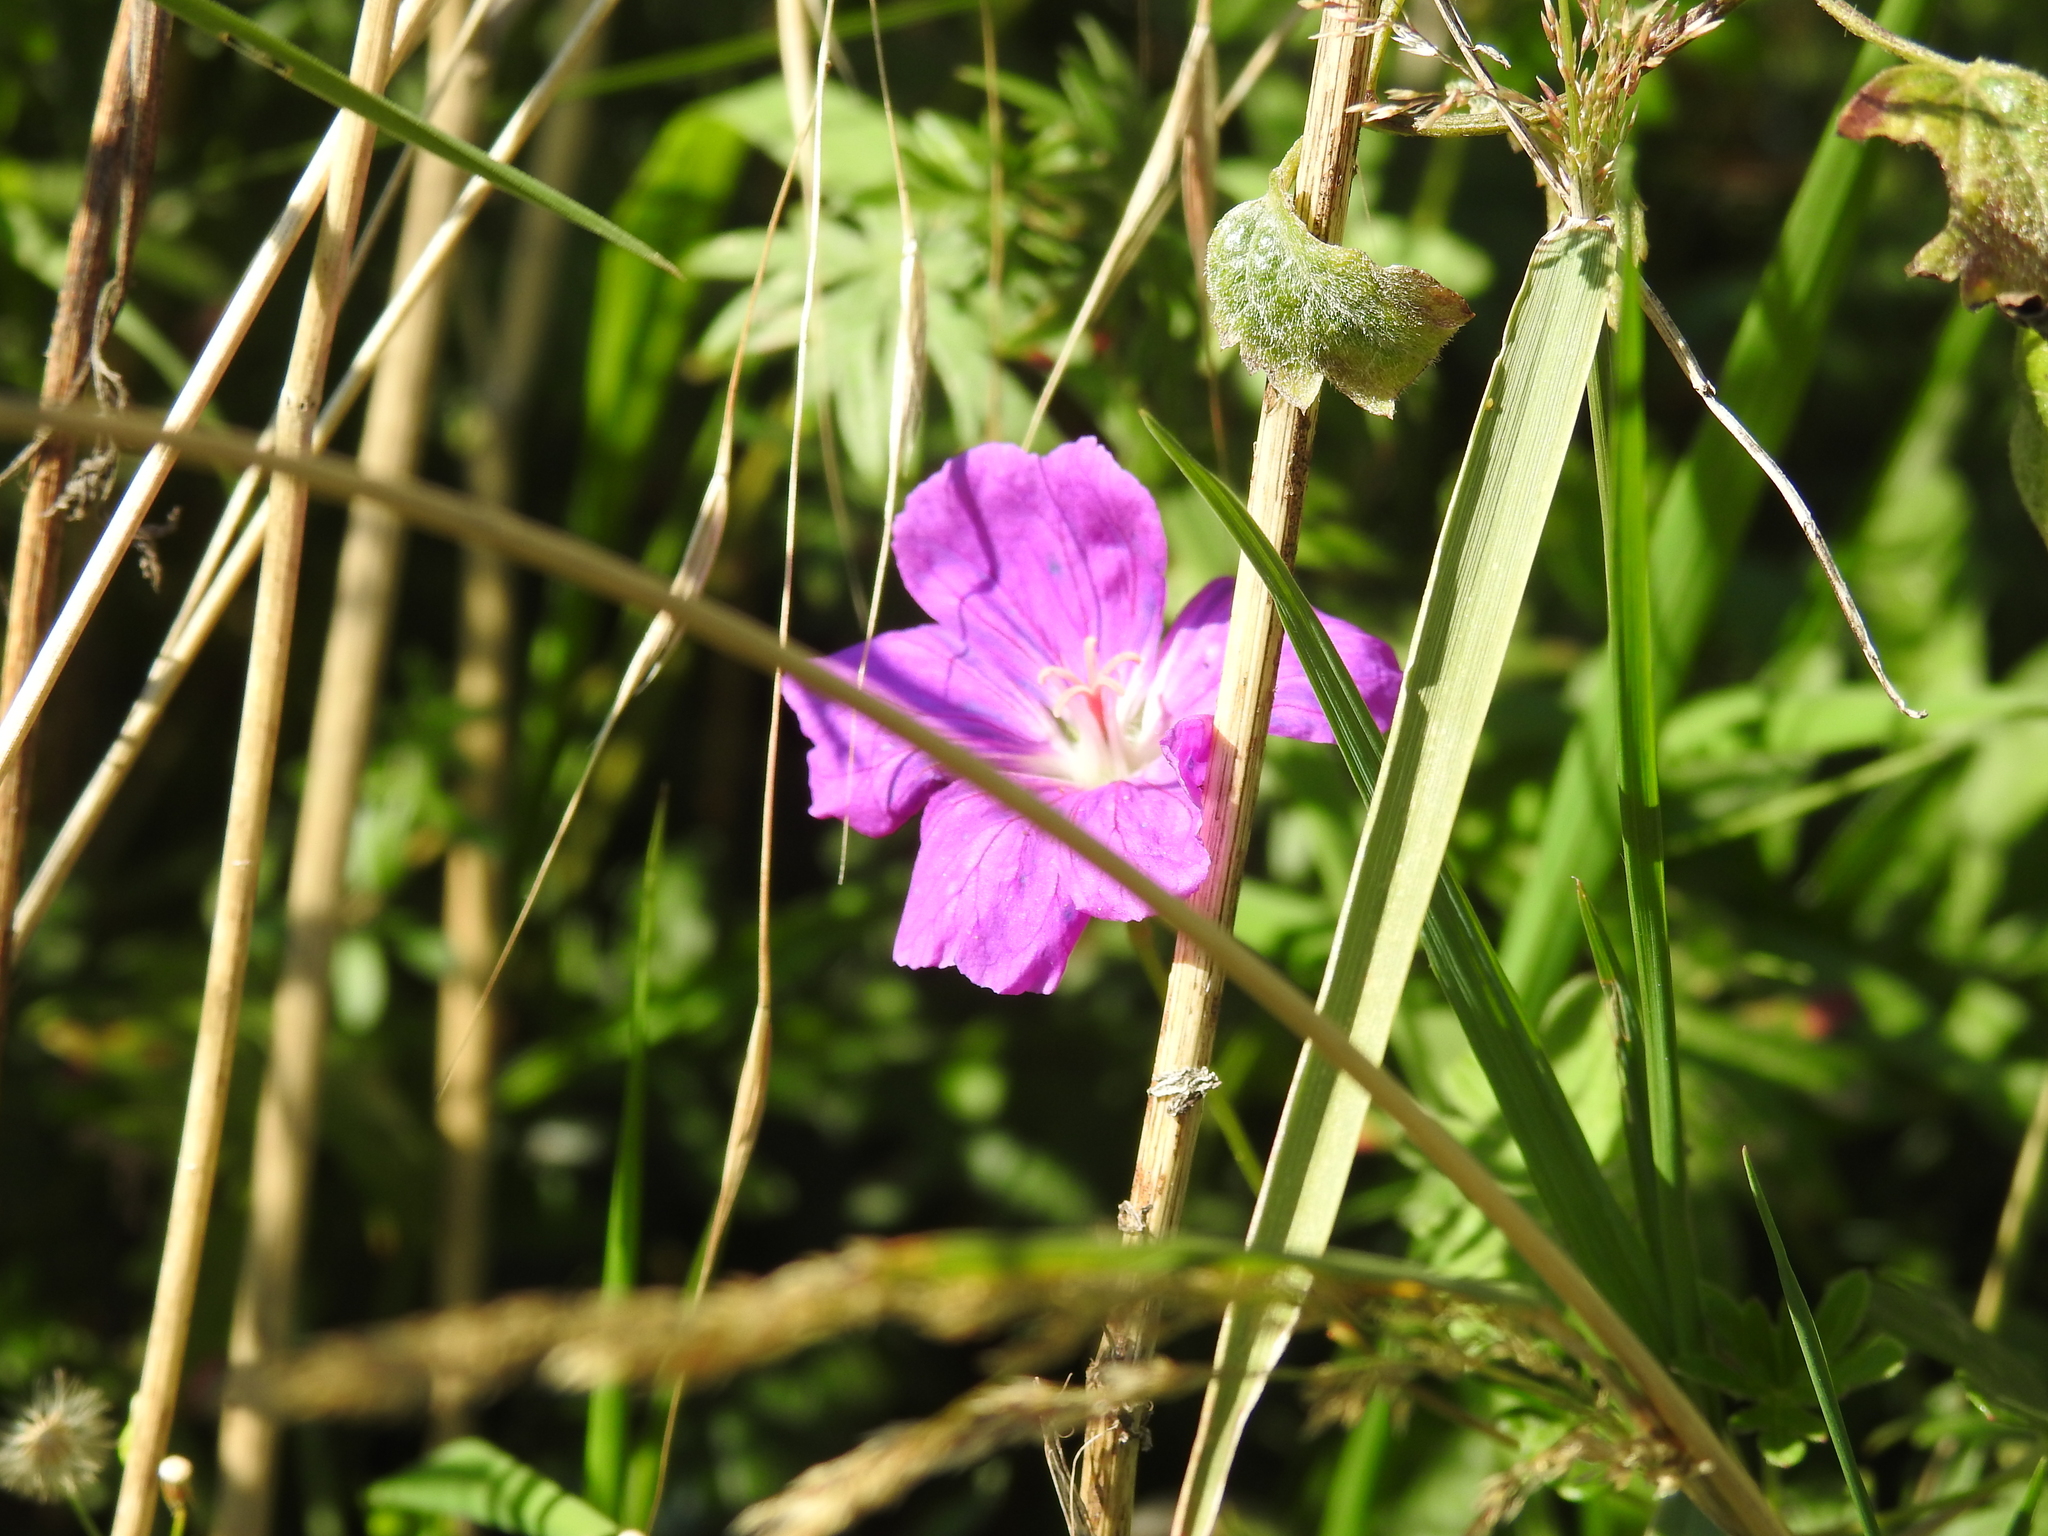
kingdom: Plantae
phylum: Tracheophyta
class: Magnoliopsida
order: Geraniales
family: Geraniaceae
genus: Geranium
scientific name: Geranium sanguineum
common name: Bloody crane's-bill
